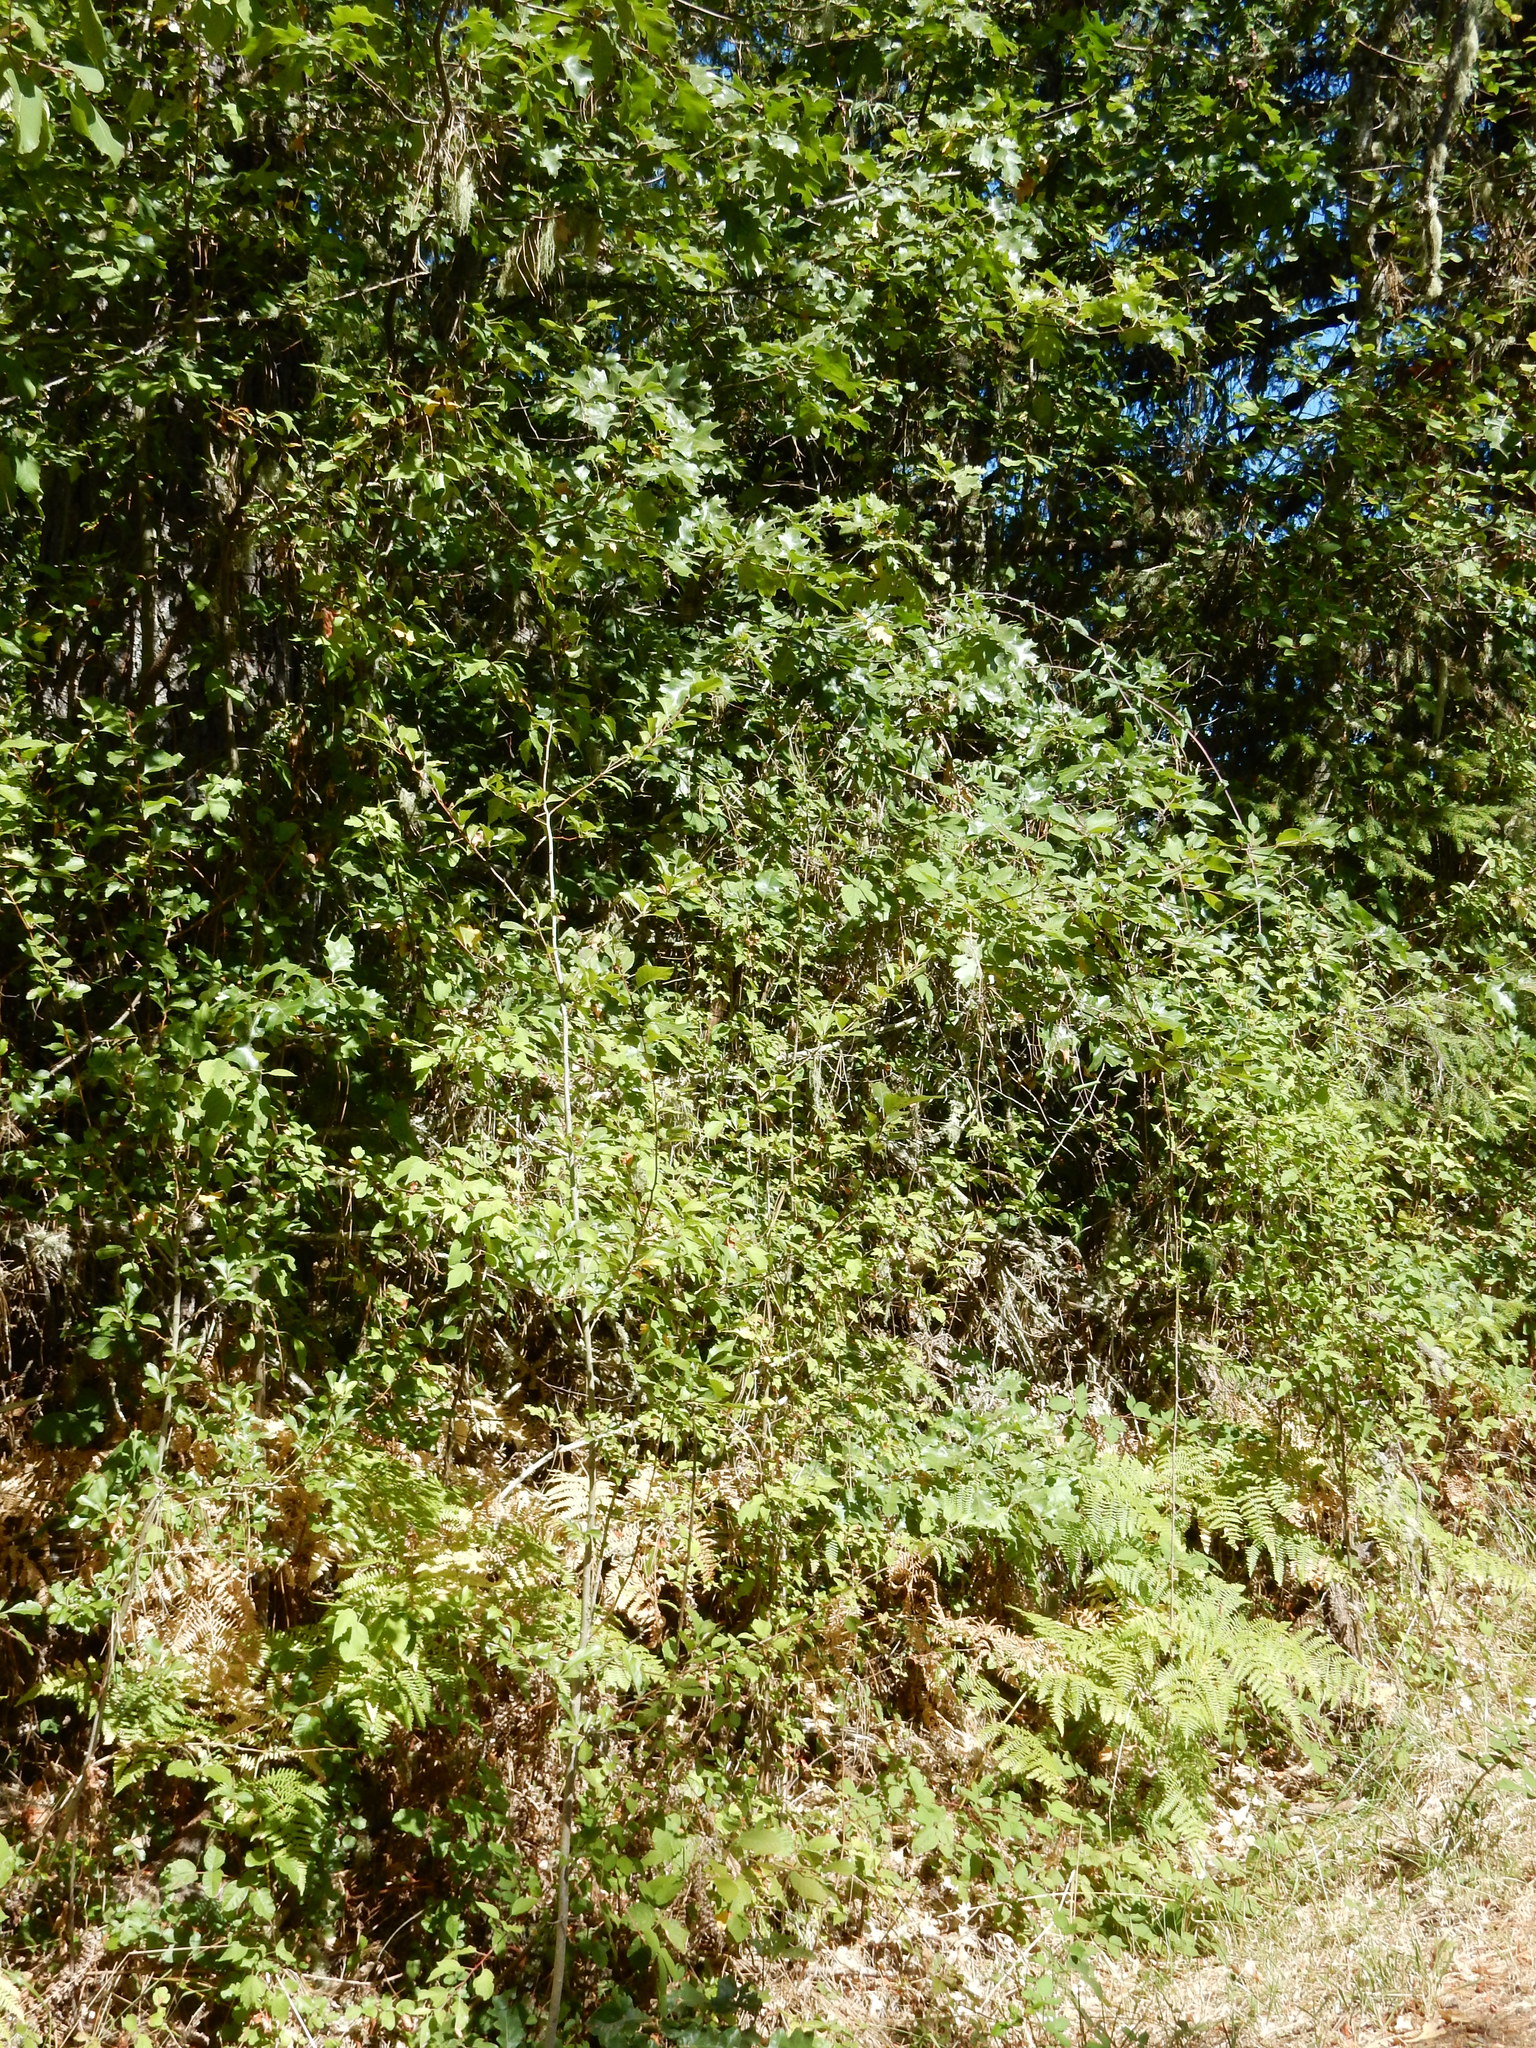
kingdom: Plantae
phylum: Tracheophyta
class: Polypodiopsida
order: Polypodiales
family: Dennstaedtiaceae
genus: Pteridium
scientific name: Pteridium aquilinum
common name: Bracken
